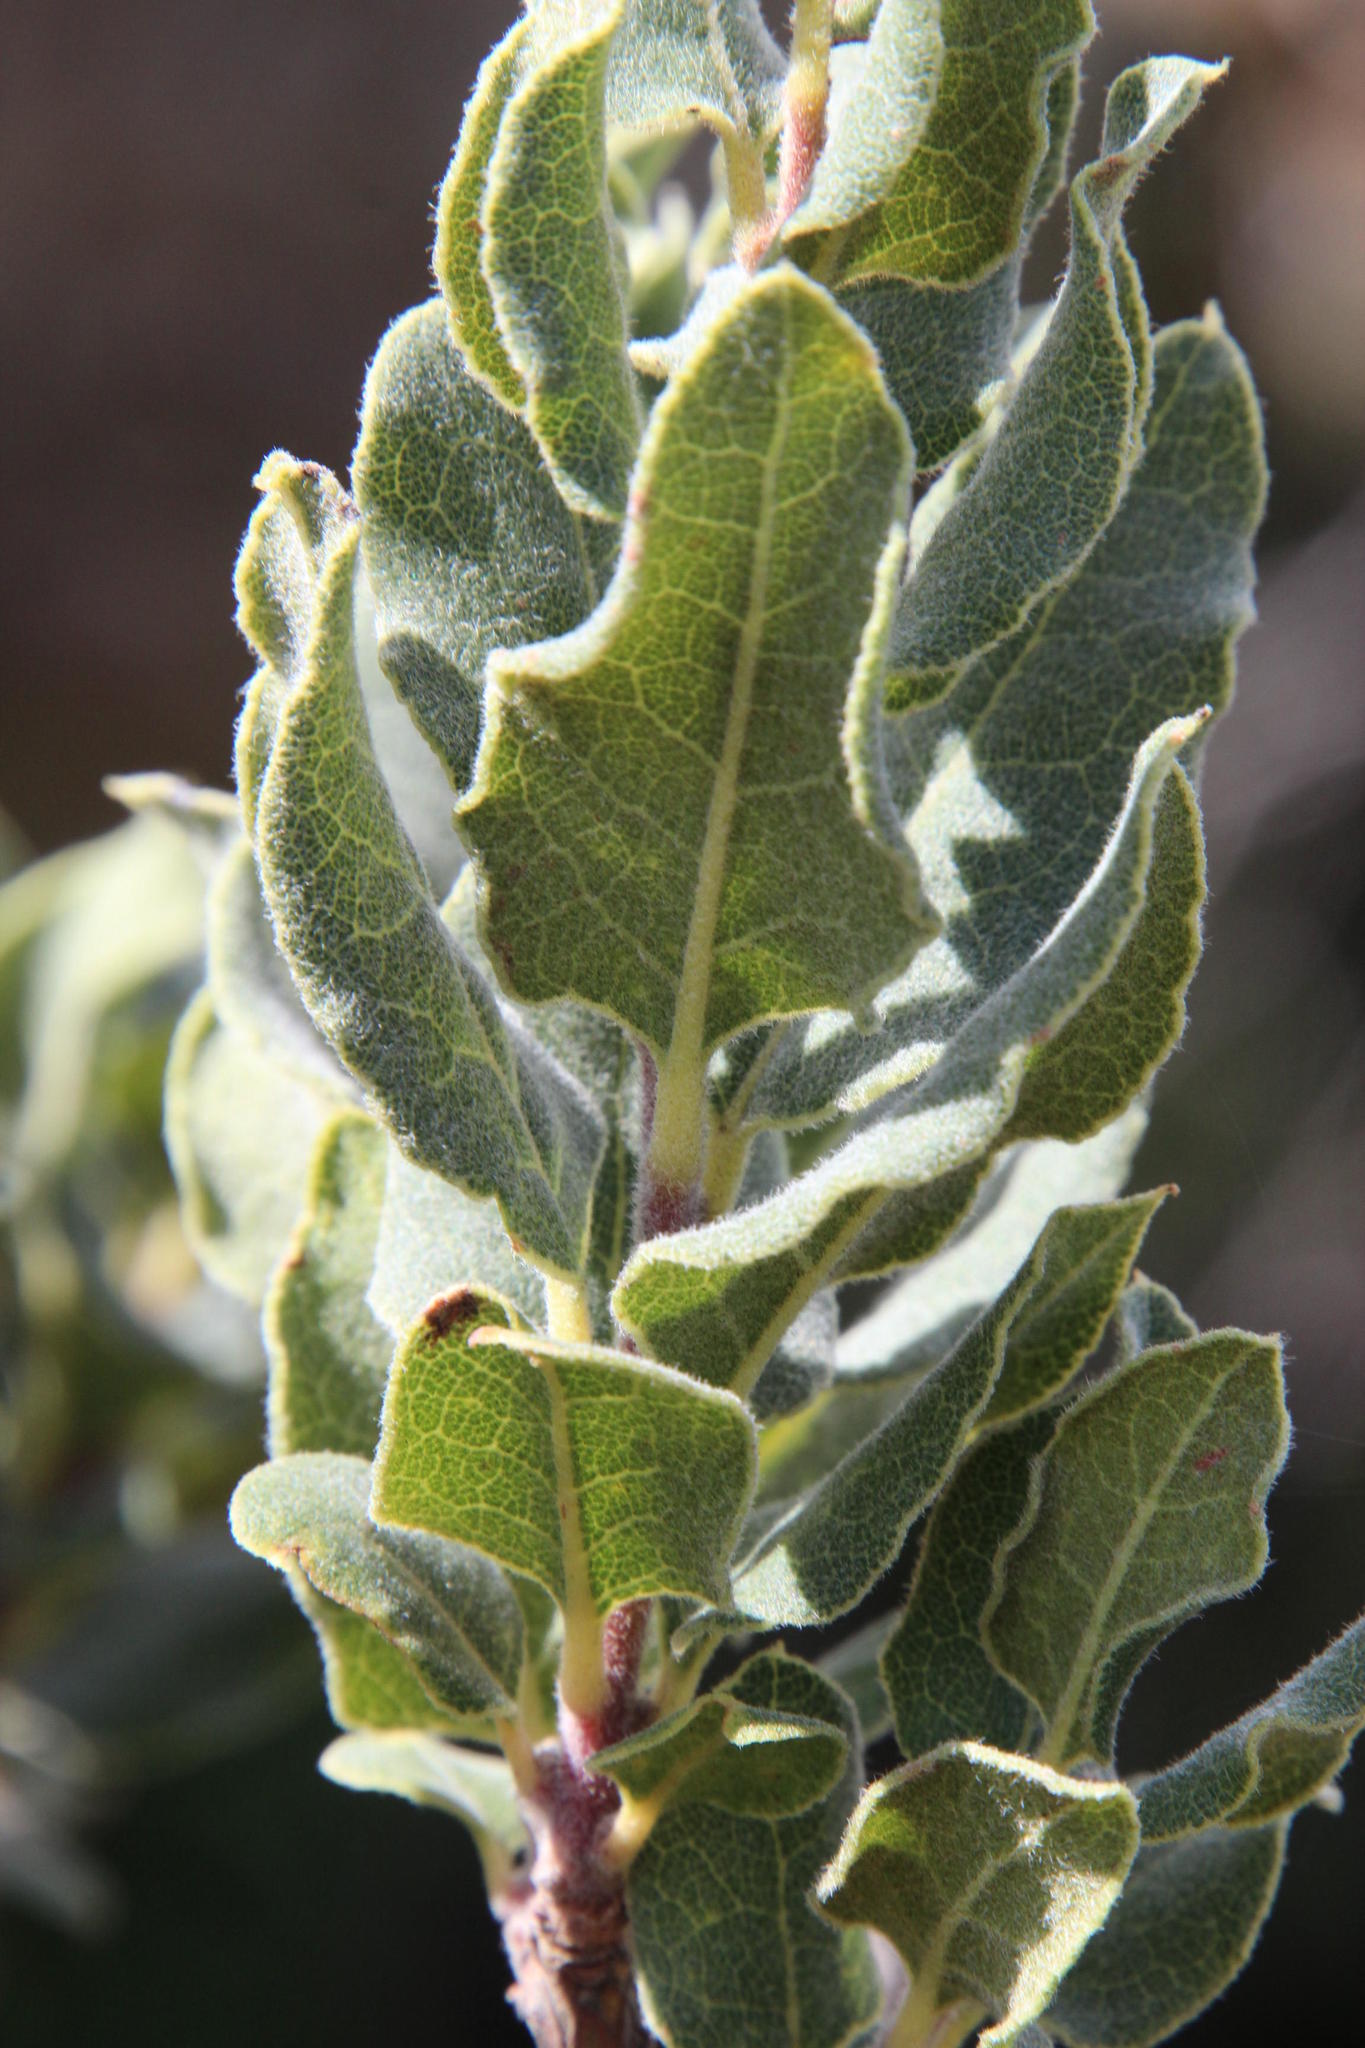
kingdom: Plantae
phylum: Tracheophyta
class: Magnoliopsida
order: Ericales
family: Ebenaceae
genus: Euclea
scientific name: Euclea coriacea
